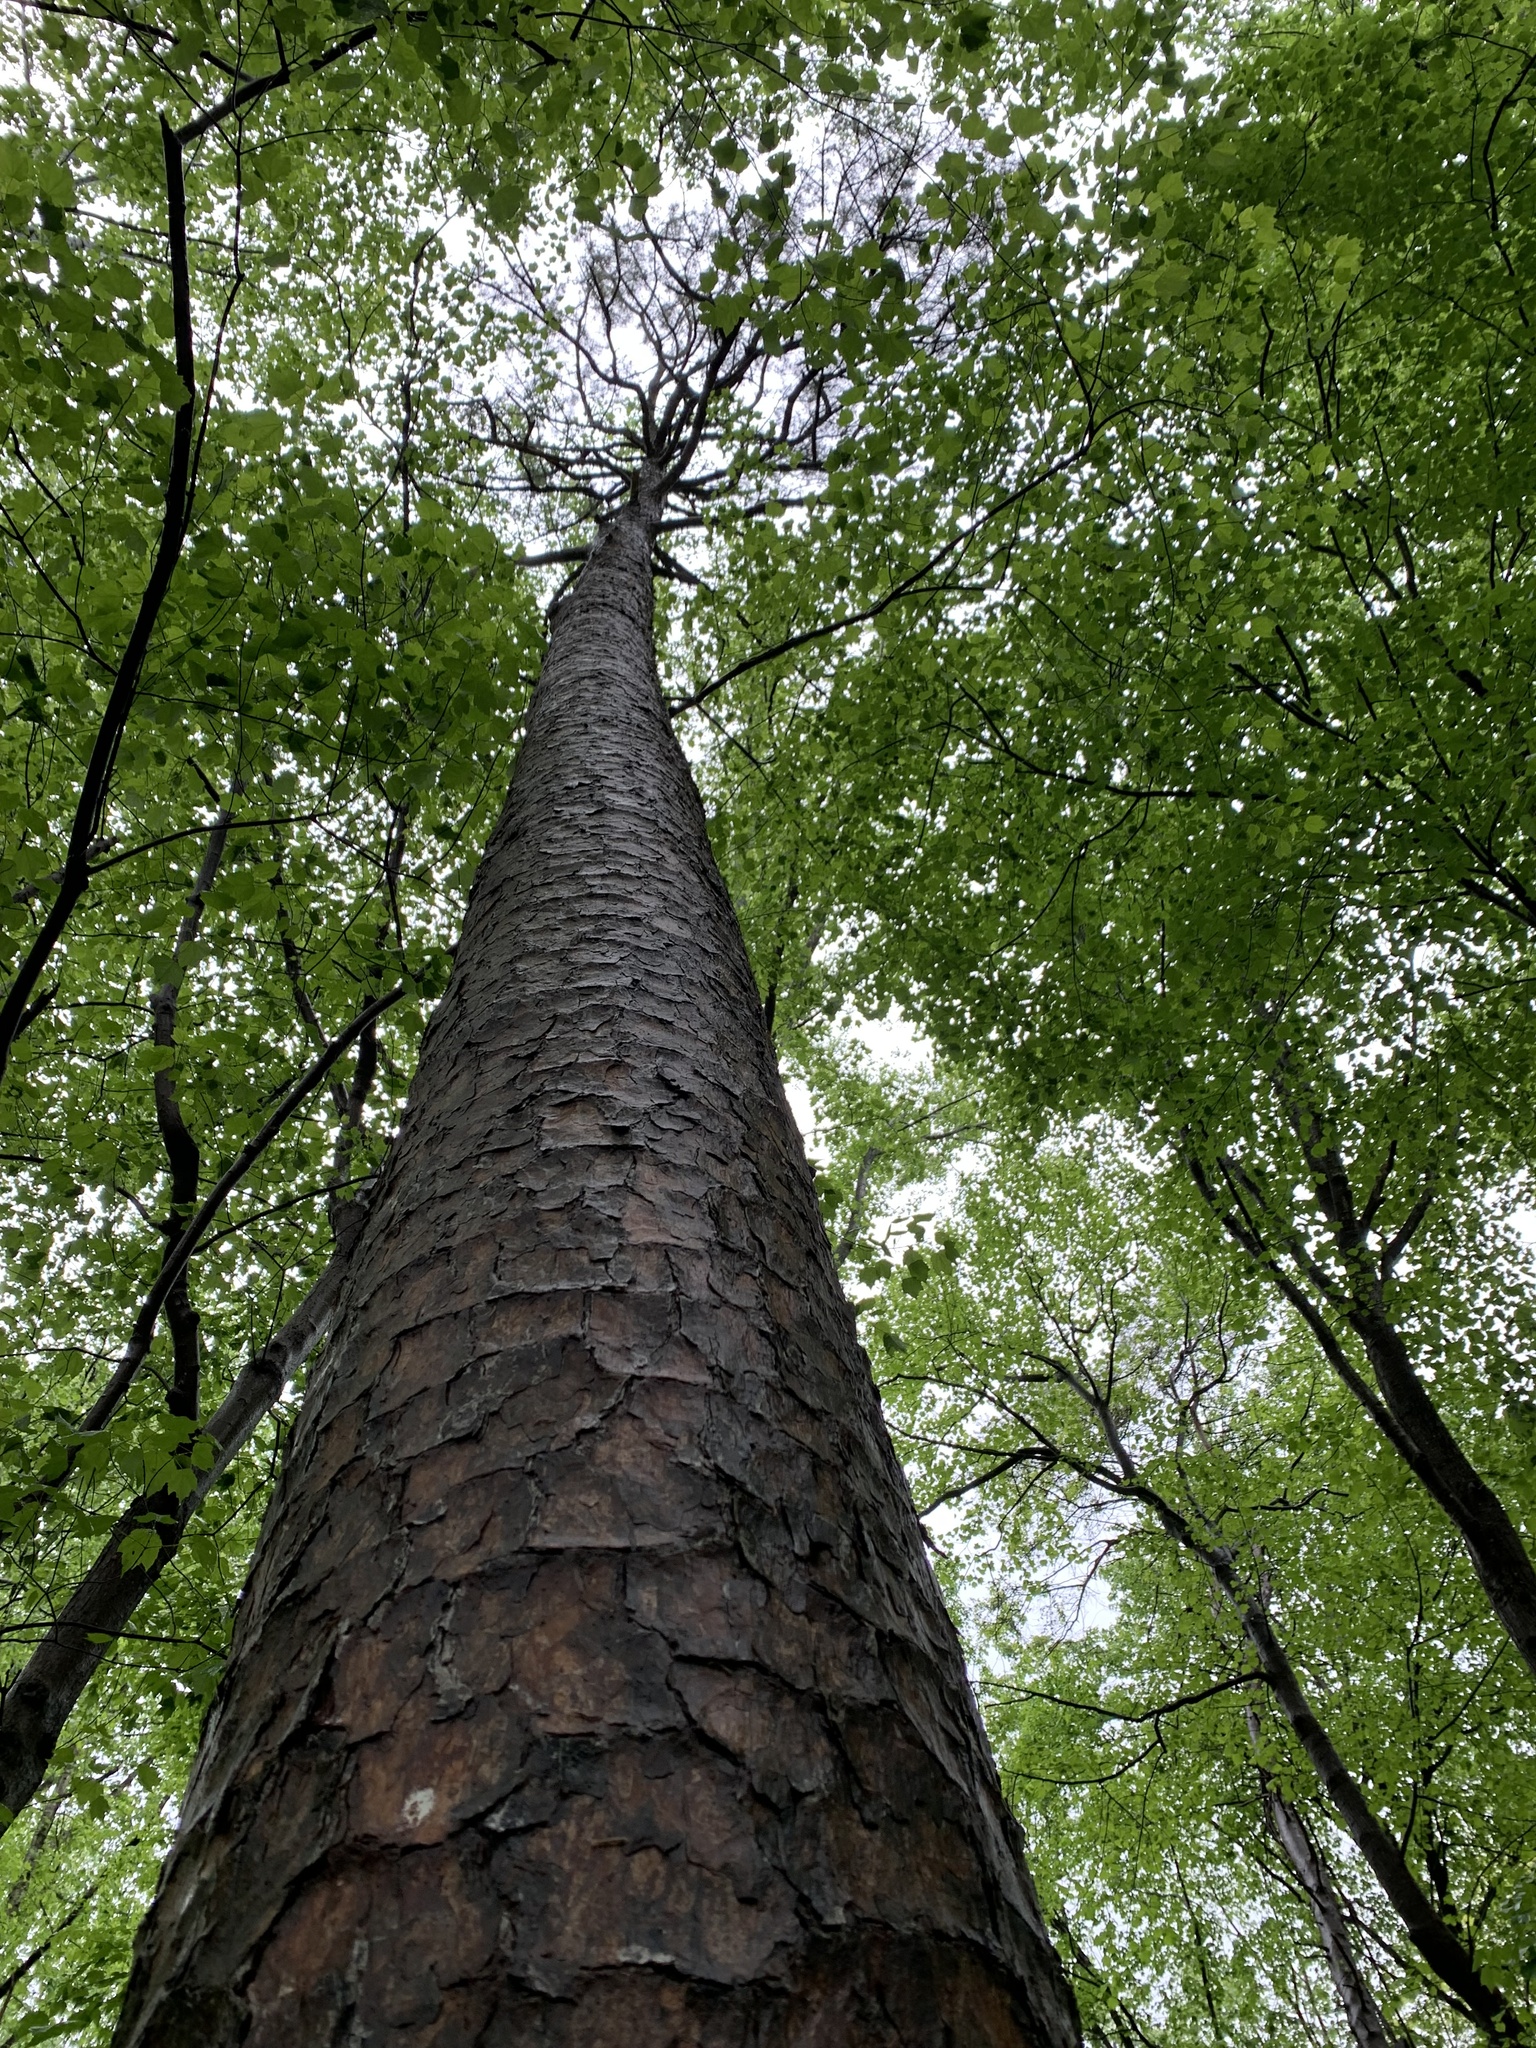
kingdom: Plantae
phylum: Tracheophyta
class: Pinopsida
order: Pinales
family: Pinaceae
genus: Pinus
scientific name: Pinus echinata
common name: Shortleaf pine
